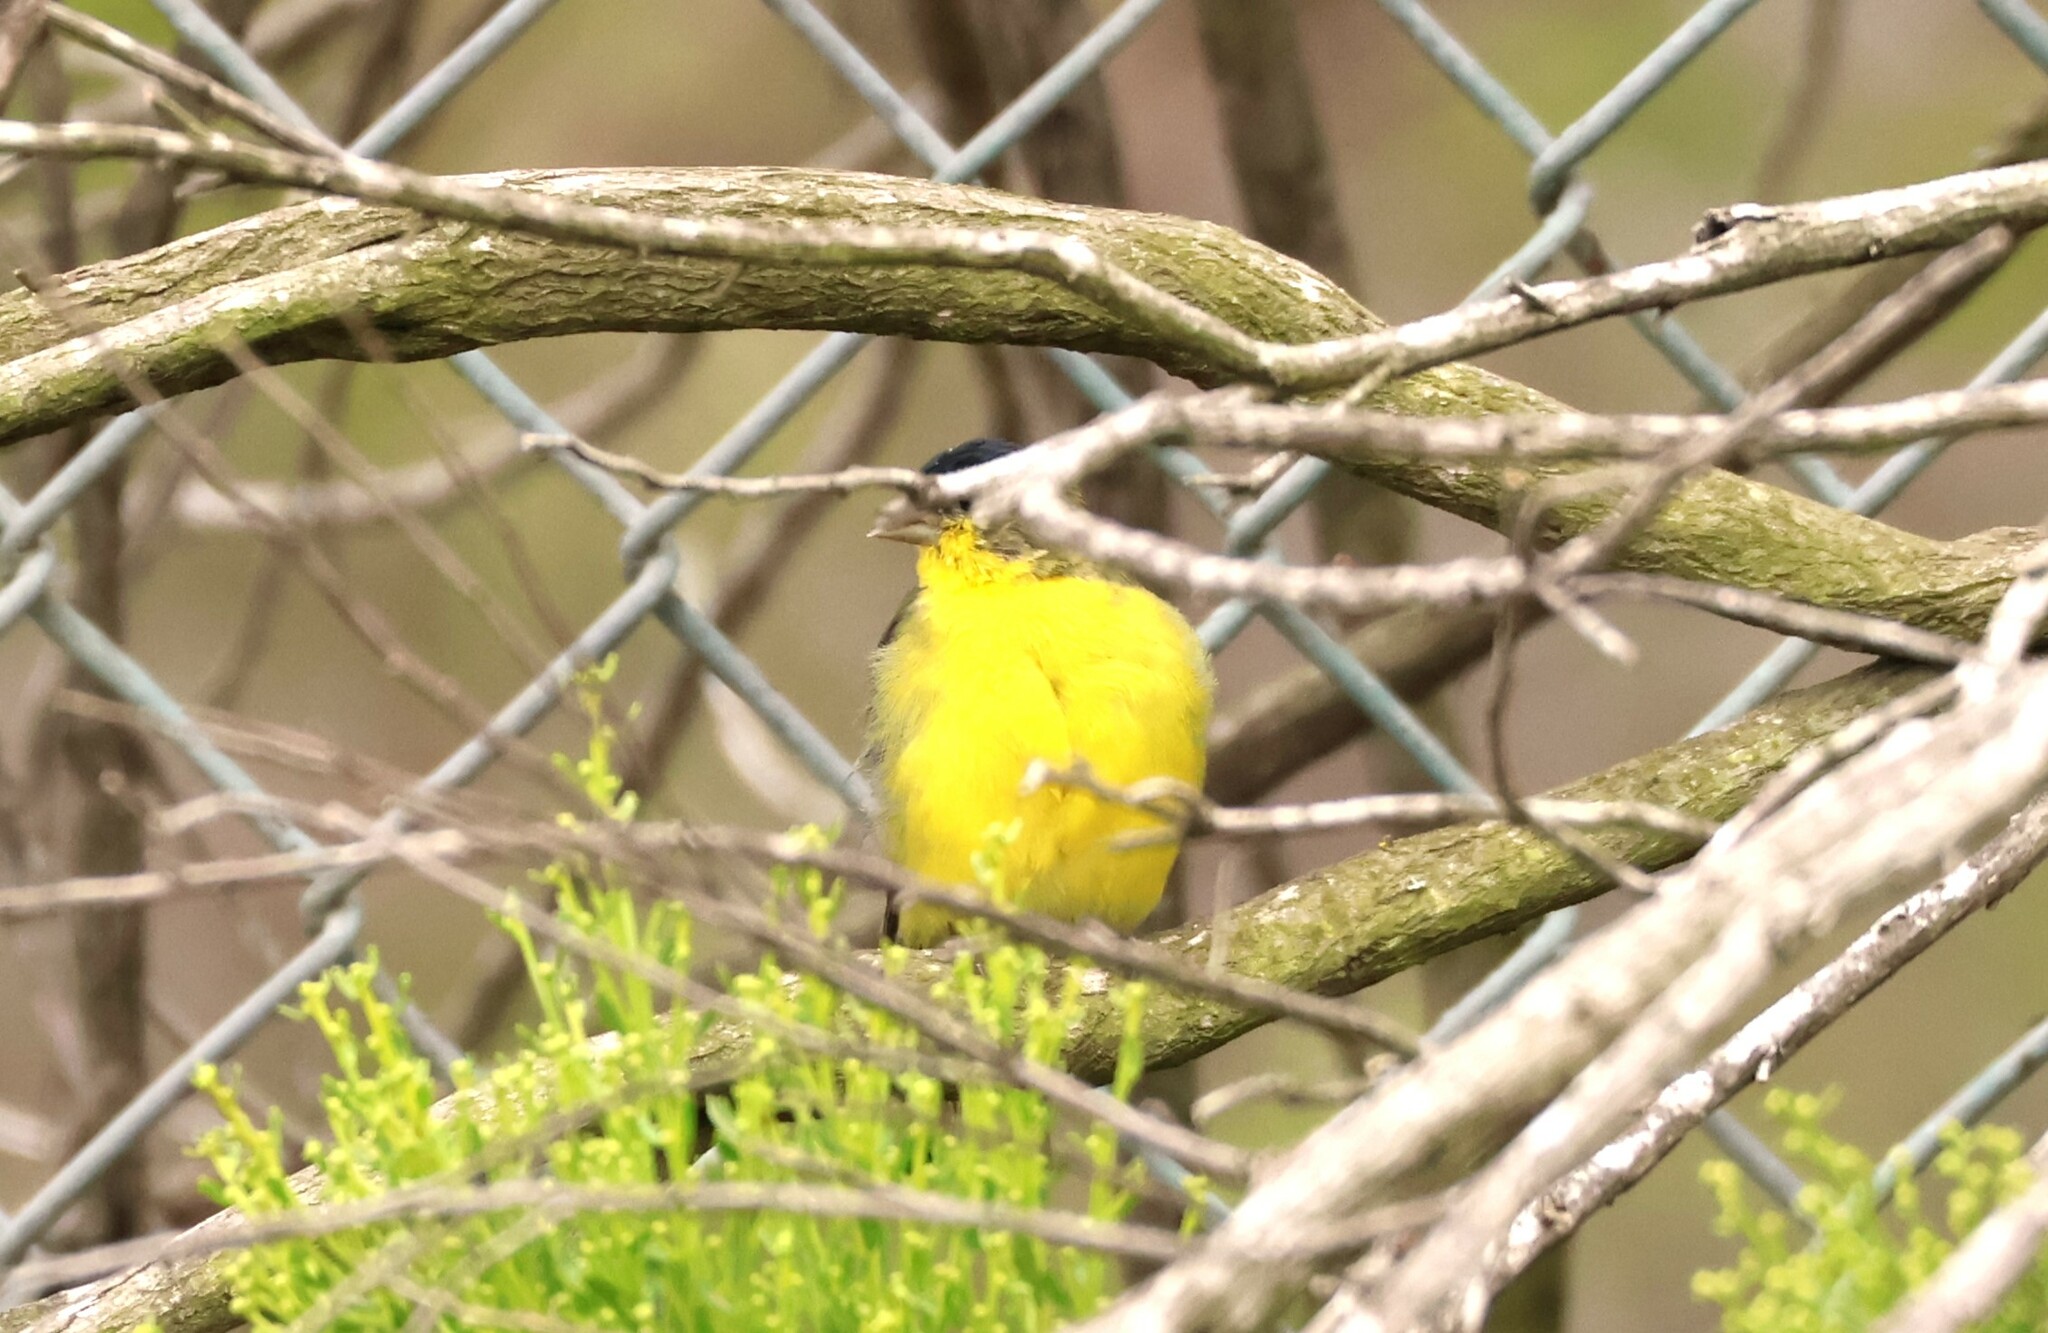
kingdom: Animalia
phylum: Chordata
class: Aves
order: Passeriformes
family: Fringillidae
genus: Spinus
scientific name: Spinus psaltria
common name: Lesser goldfinch
